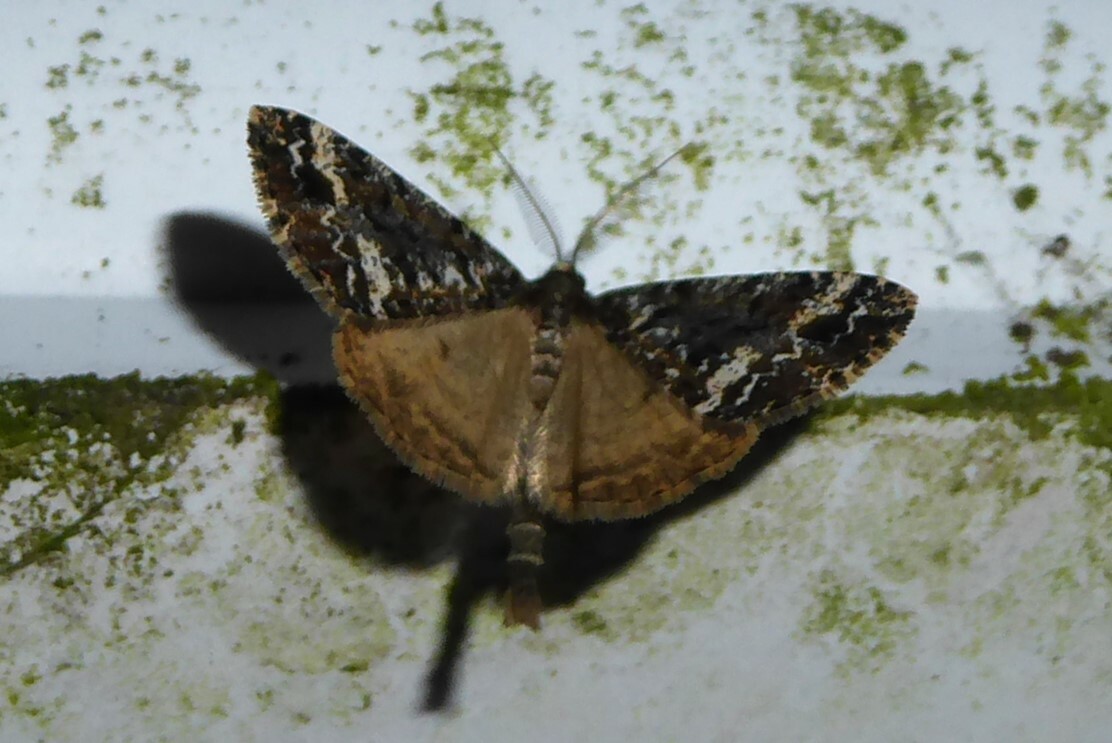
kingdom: Animalia
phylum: Arthropoda
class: Insecta
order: Lepidoptera
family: Geometridae
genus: Pseudocoremia
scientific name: Pseudocoremia leucelaea
